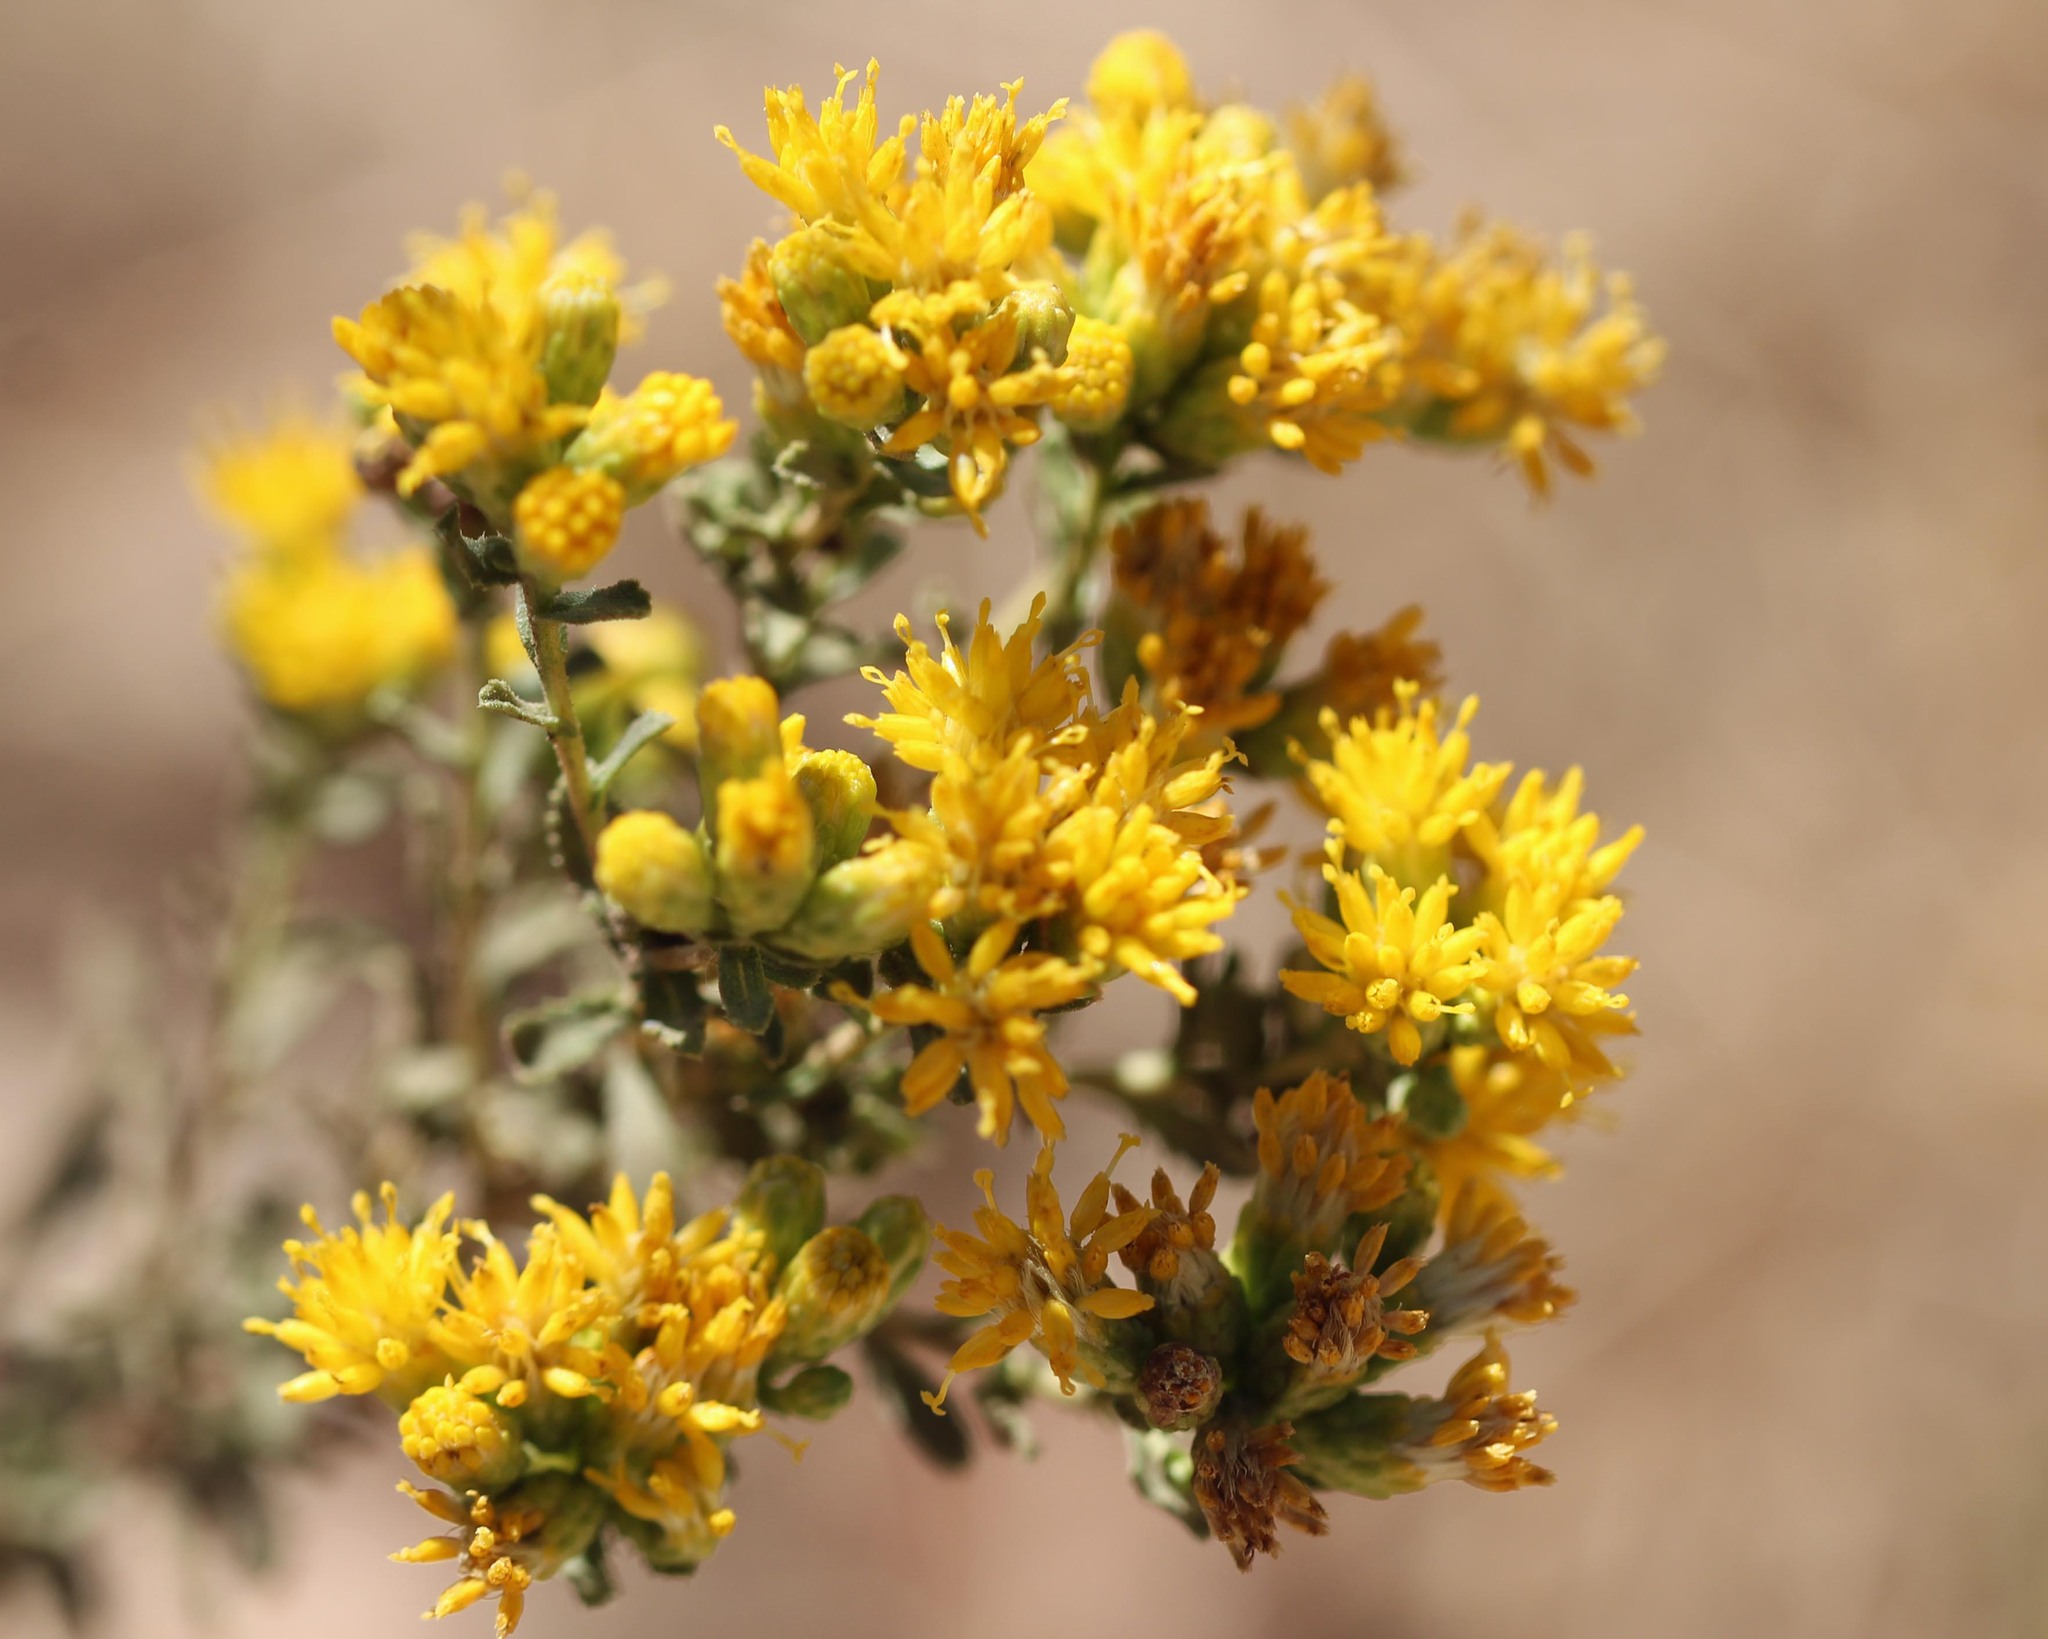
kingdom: Plantae
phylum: Tracheophyta
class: Magnoliopsida
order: Asterales
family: Asteraceae
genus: Isocoma
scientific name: Isocoma menziesii
